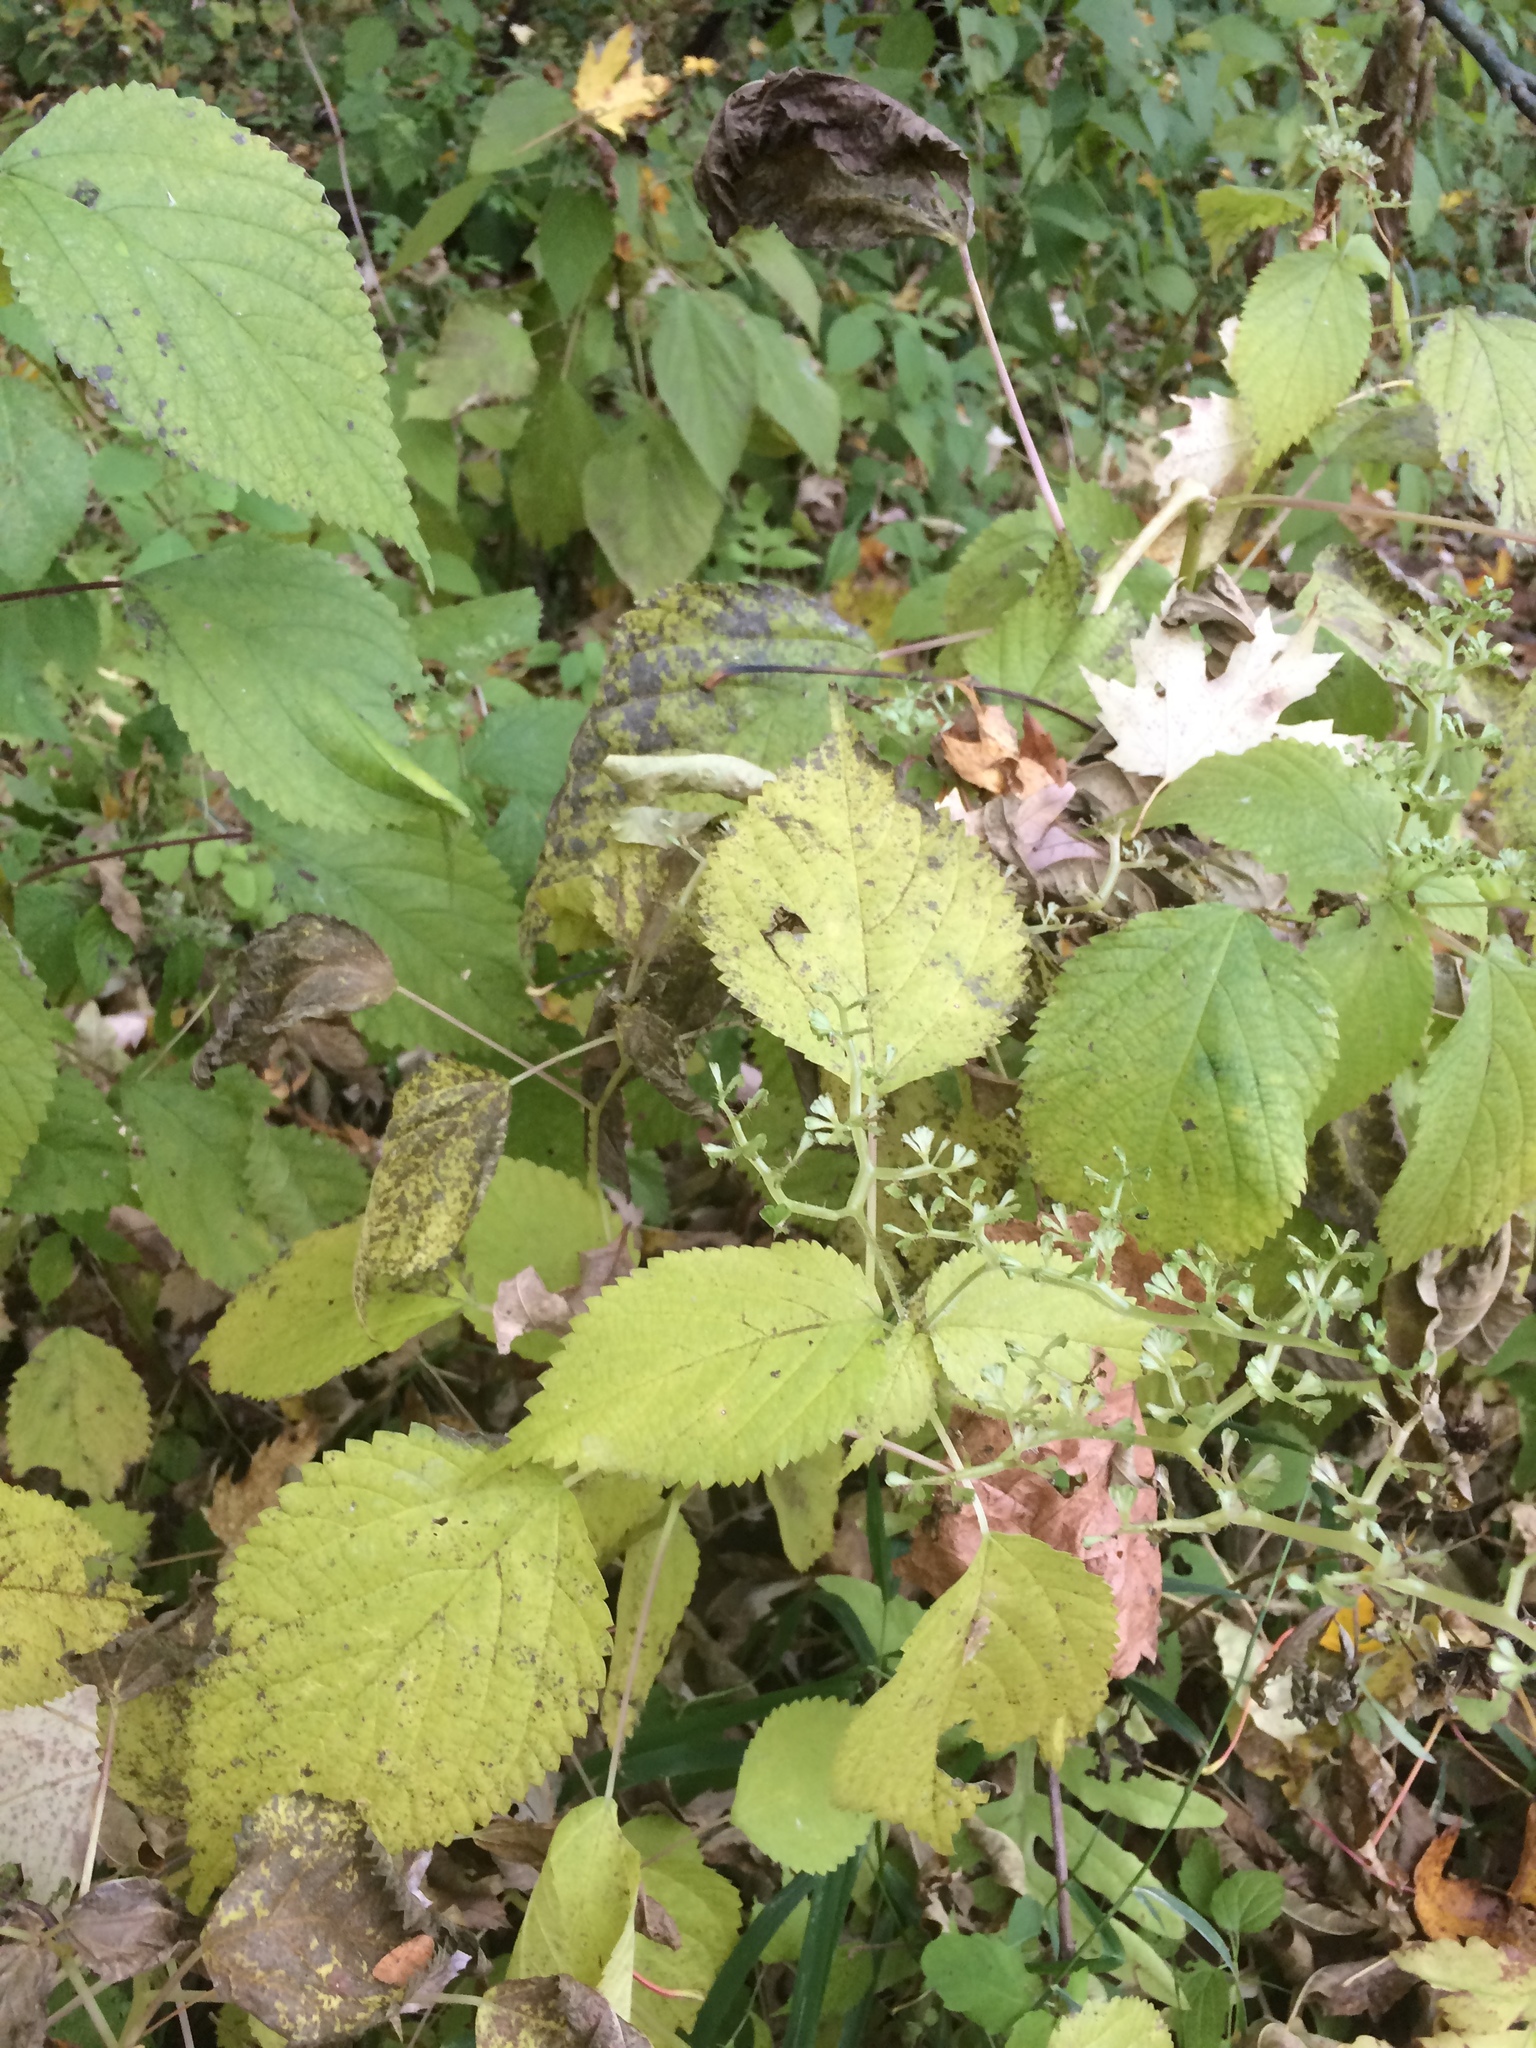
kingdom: Plantae
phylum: Tracheophyta
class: Magnoliopsida
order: Rosales
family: Urticaceae
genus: Laportea
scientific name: Laportea canadensis
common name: Canada nettle
